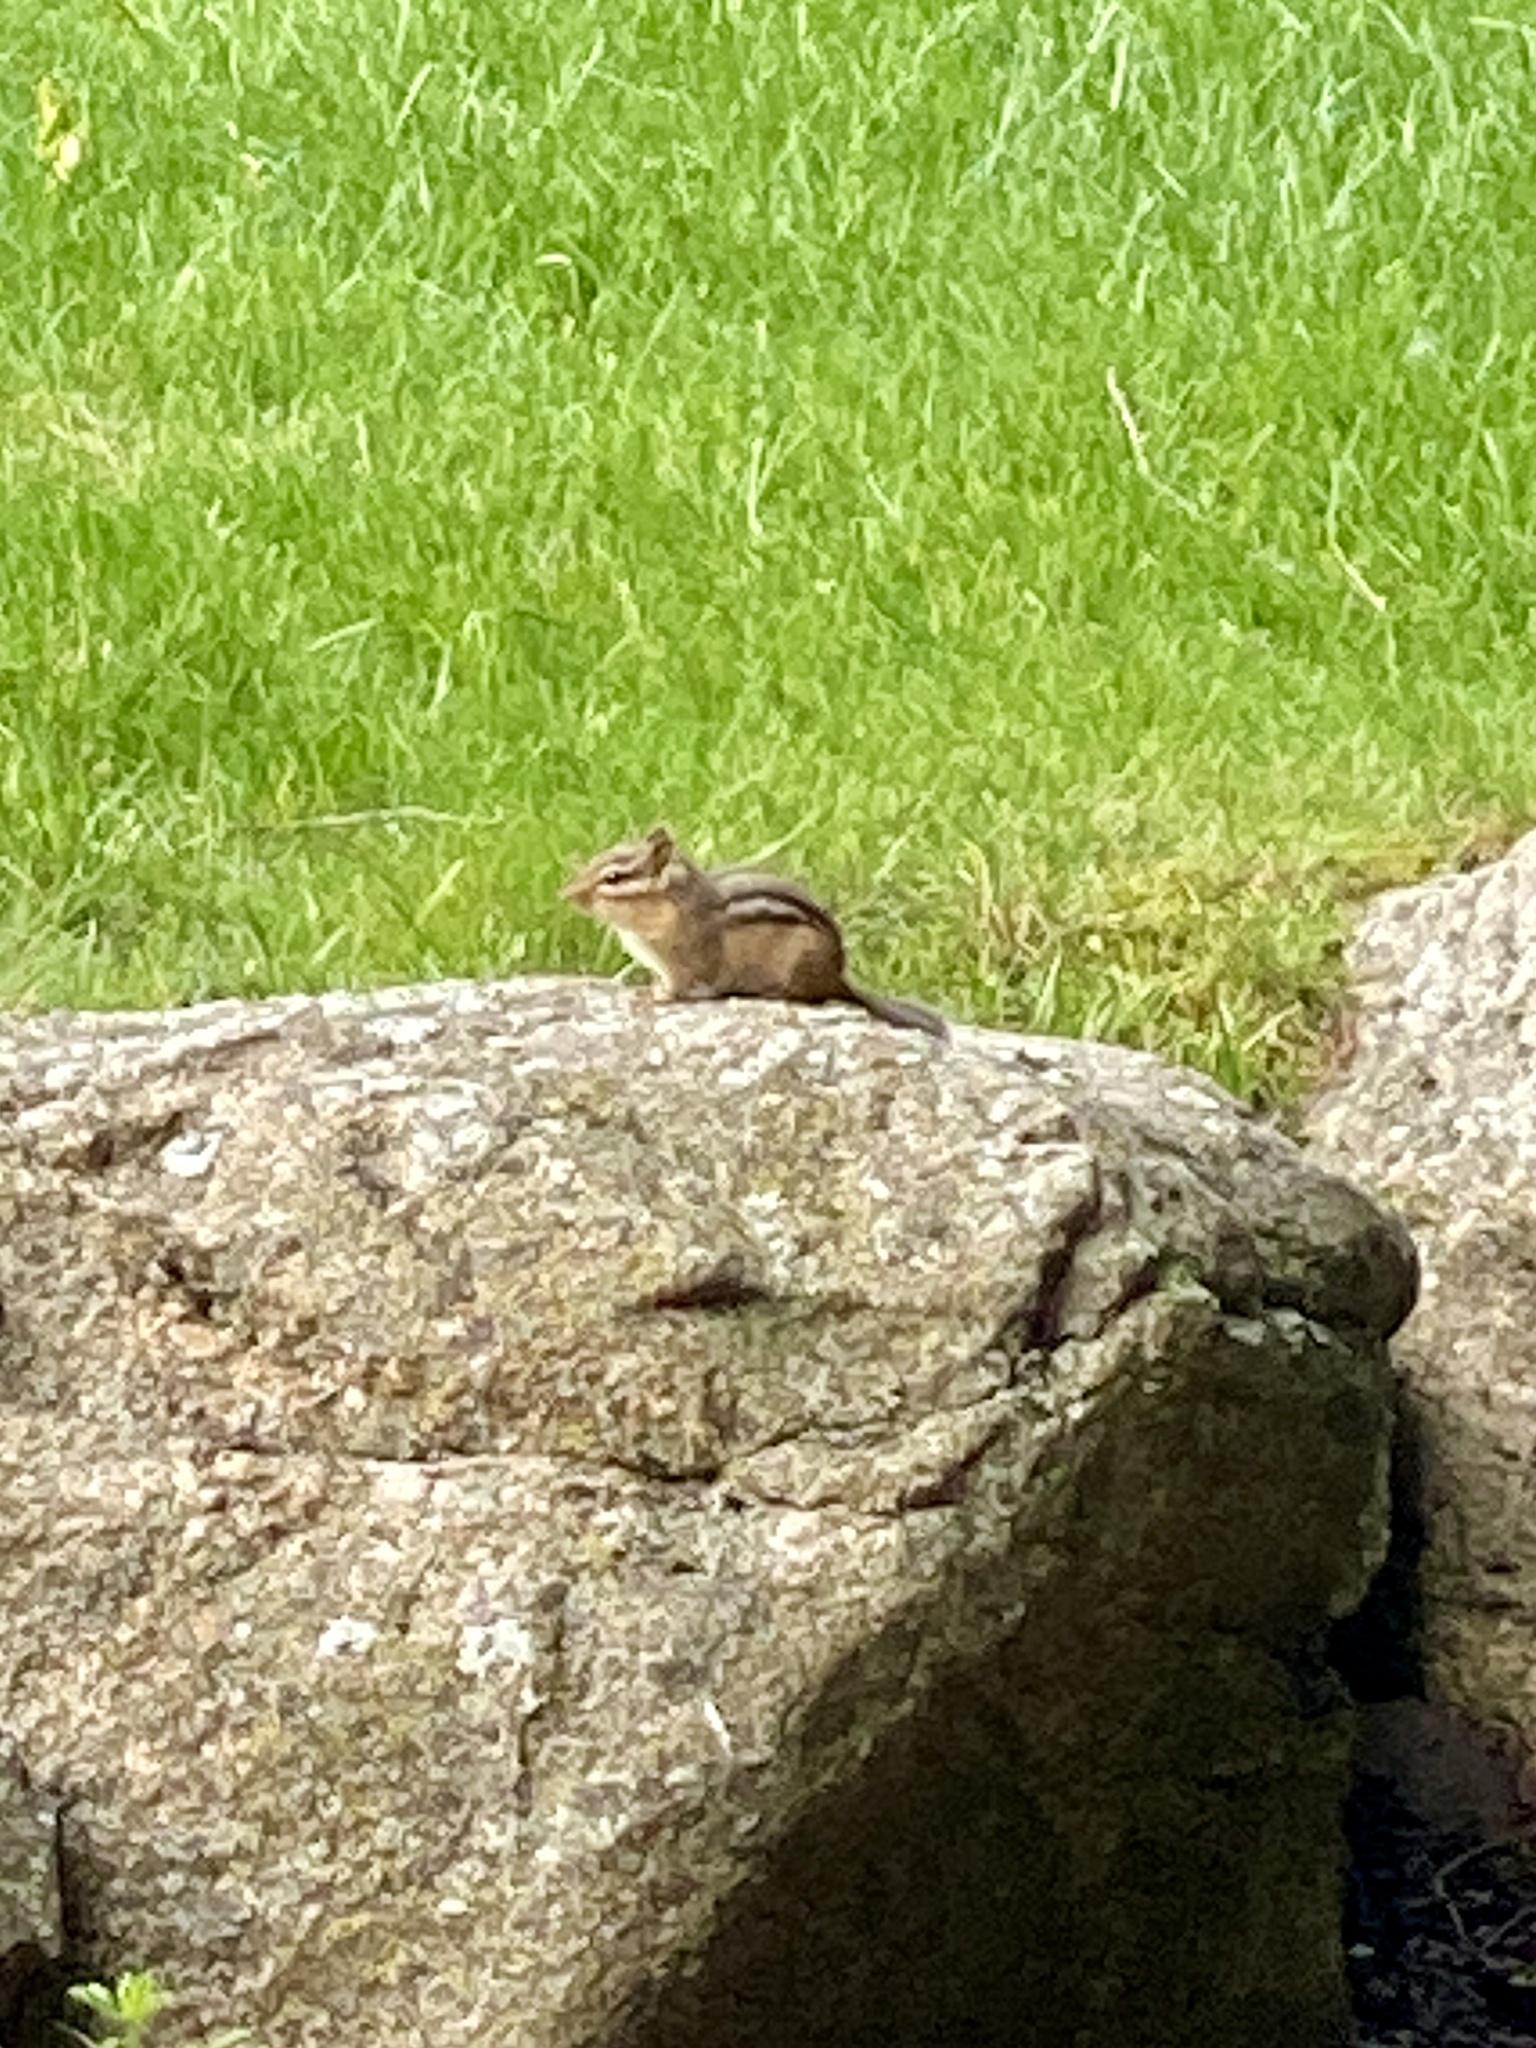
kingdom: Animalia
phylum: Chordata
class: Mammalia
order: Rodentia
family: Sciuridae
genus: Tamias
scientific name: Tamias striatus
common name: Eastern chipmunk
